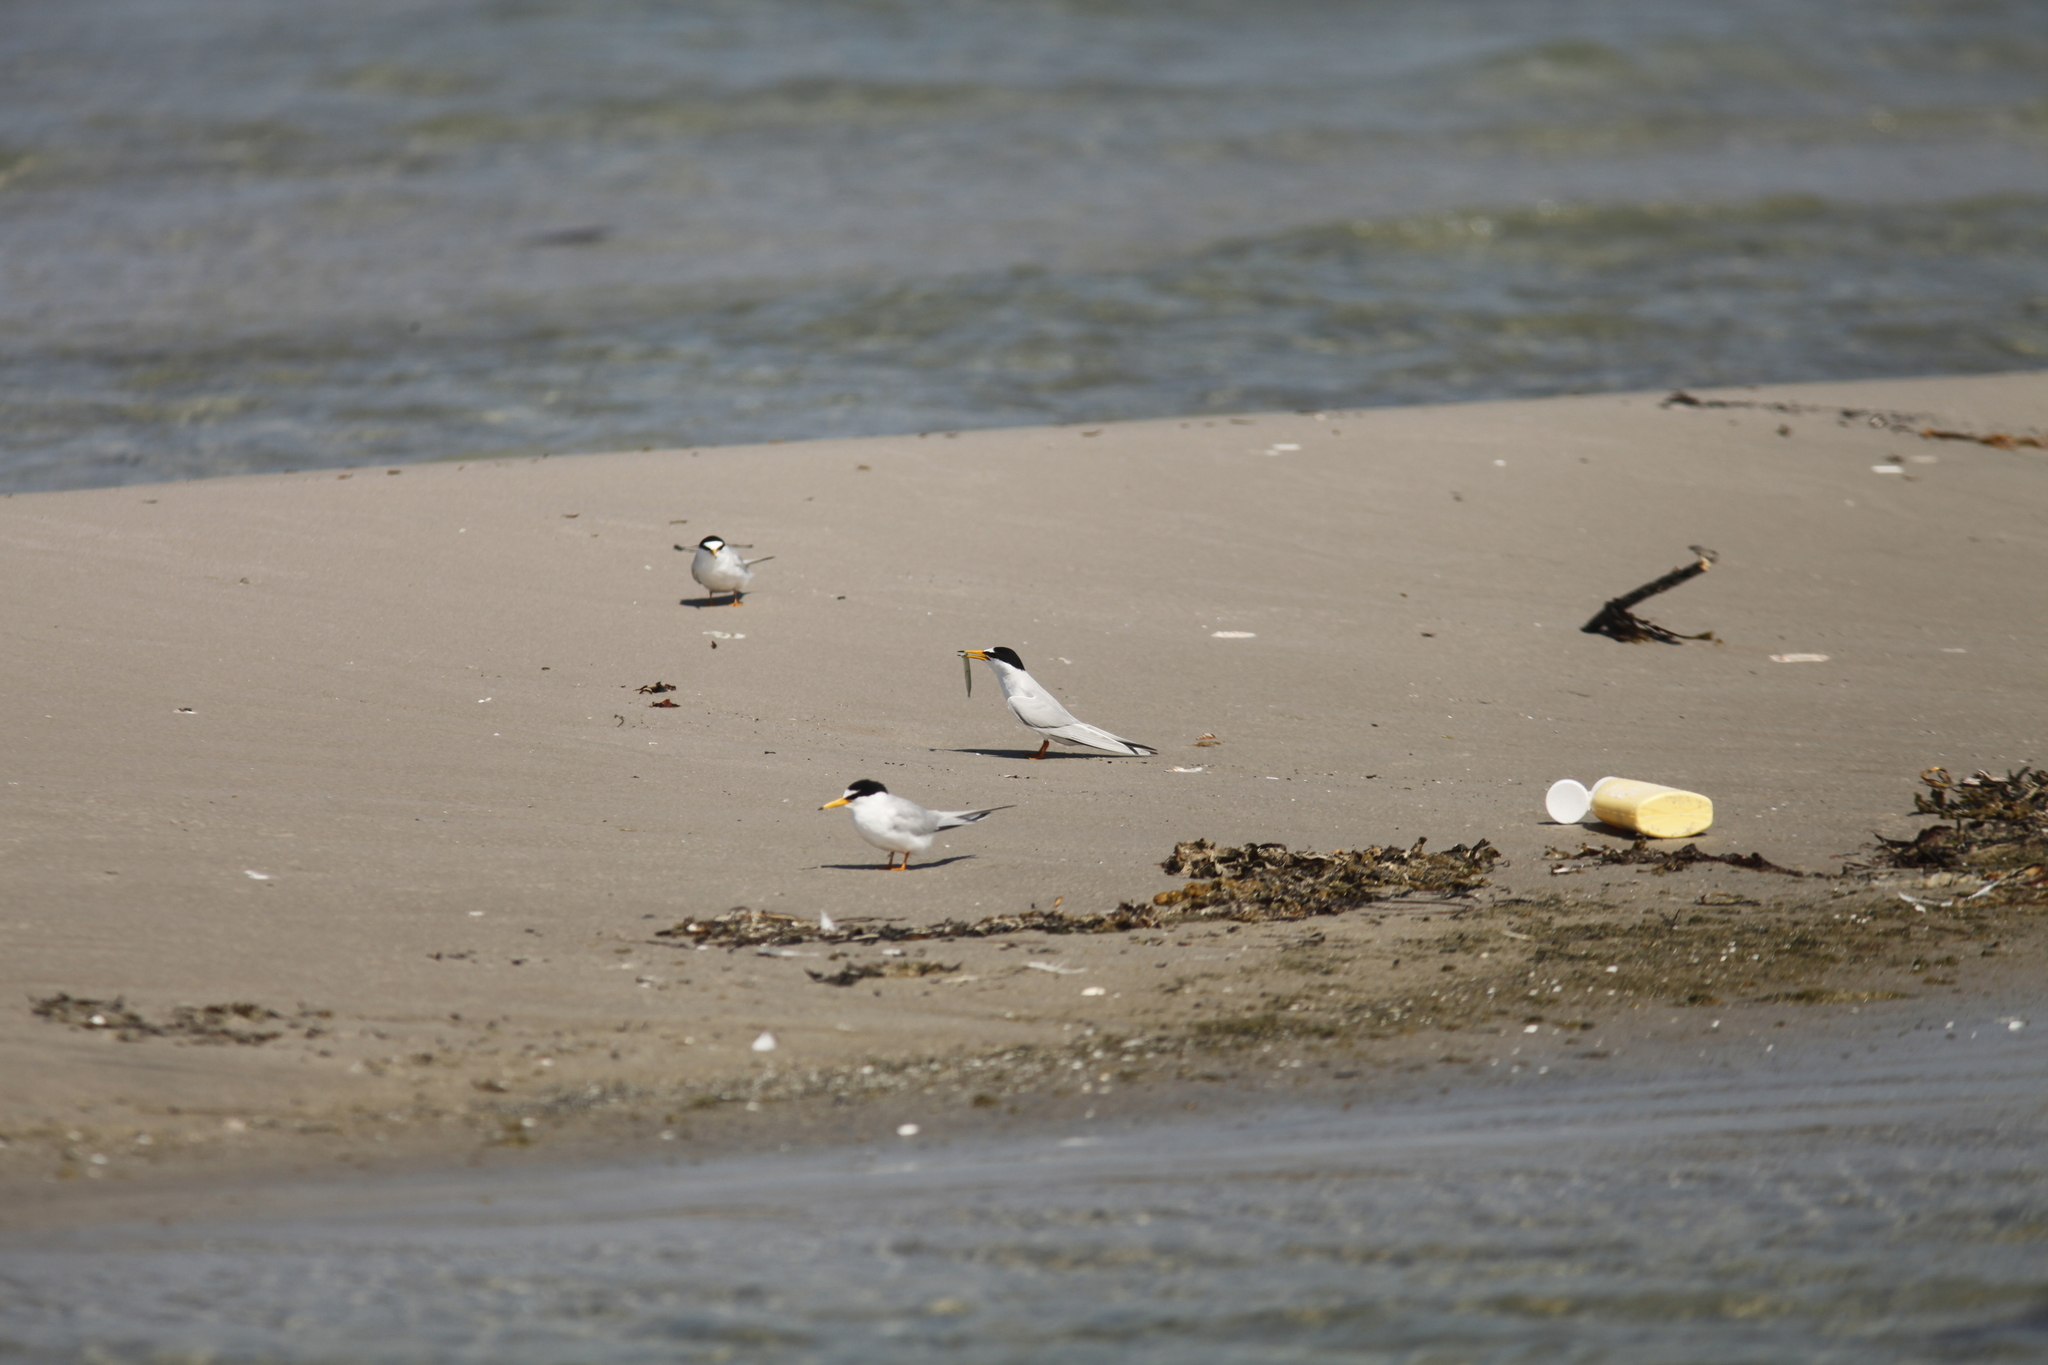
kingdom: Animalia
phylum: Chordata
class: Aves
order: Charadriiformes
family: Laridae
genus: Sternula
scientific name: Sternula albifrons
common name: Little tern
